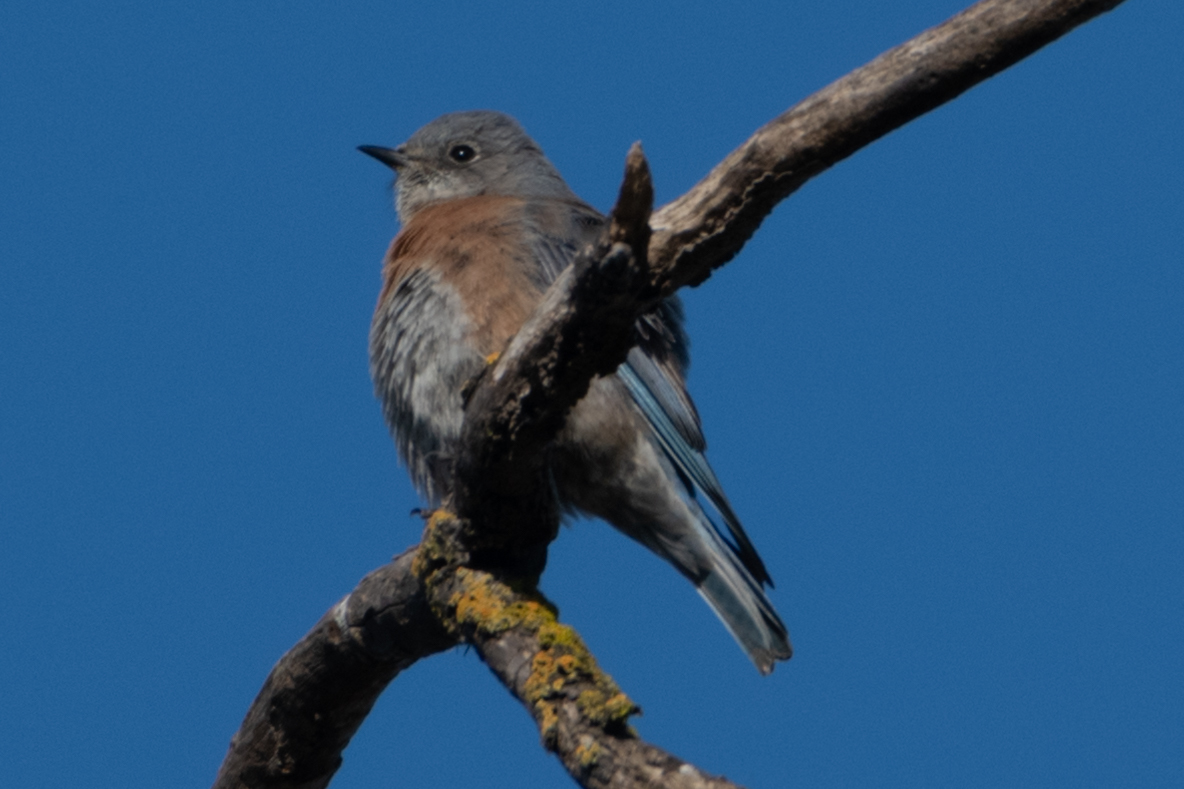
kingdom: Animalia
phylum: Chordata
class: Aves
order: Passeriformes
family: Turdidae
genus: Sialia
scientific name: Sialia mexicana
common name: Western bluebird
